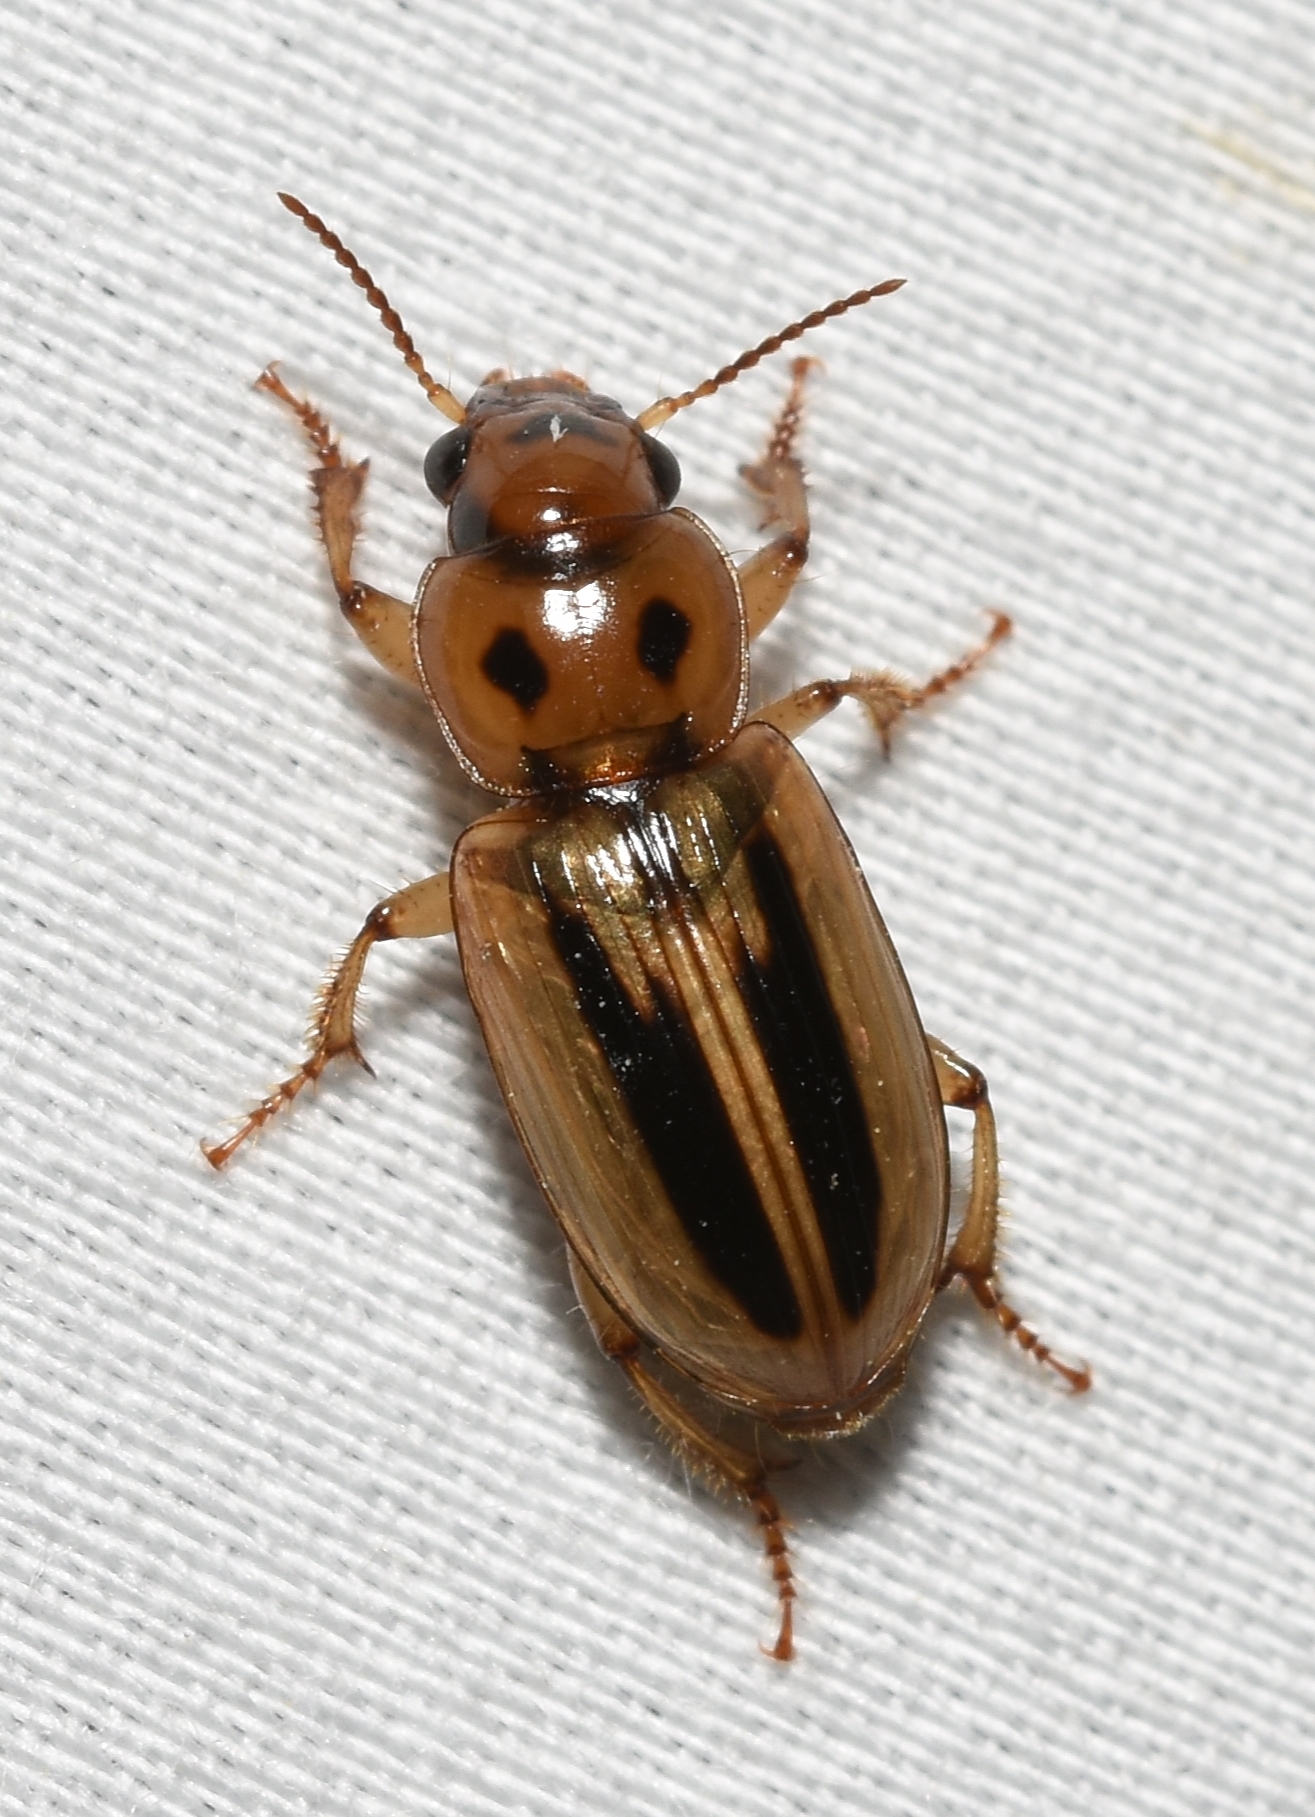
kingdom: Animalia
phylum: Arthropoda
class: Insecta
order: Coleoptera
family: Carabidae
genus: Stenolophus
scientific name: Stenolophus lineola
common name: Lined stenolophus
